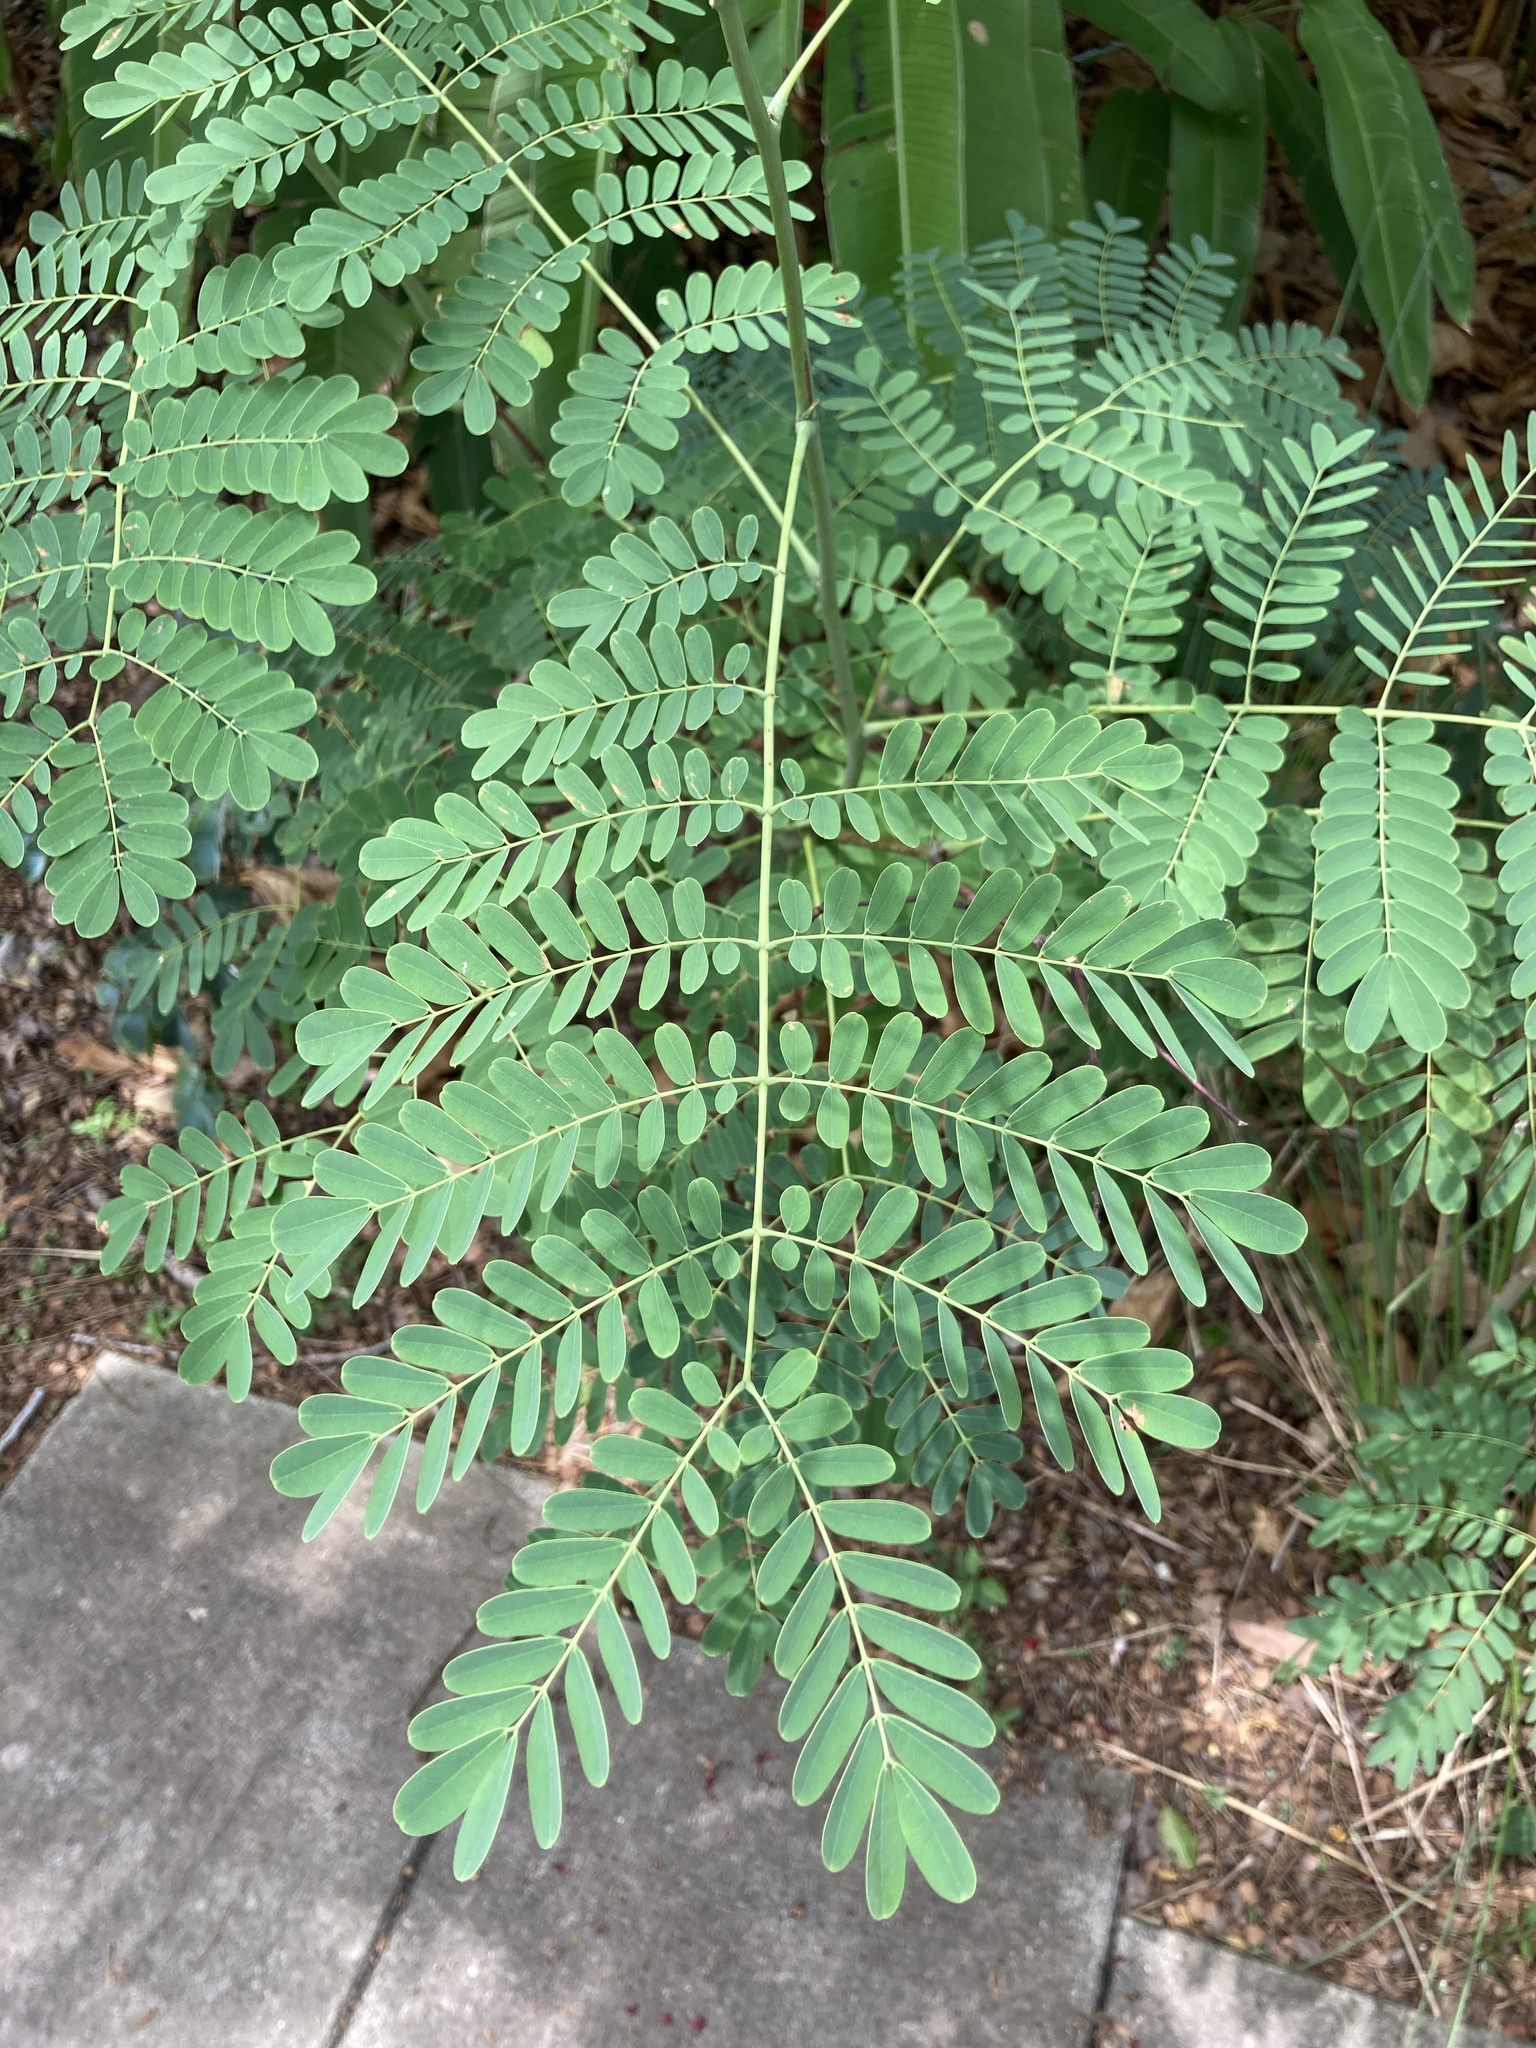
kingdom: Plantae
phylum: Tracheophyta
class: Magnoliopsida
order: Fabales
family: Fabaceae
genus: Caesalpinia
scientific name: Caesalpinia pulcherrima
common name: Pride-of-barbados
